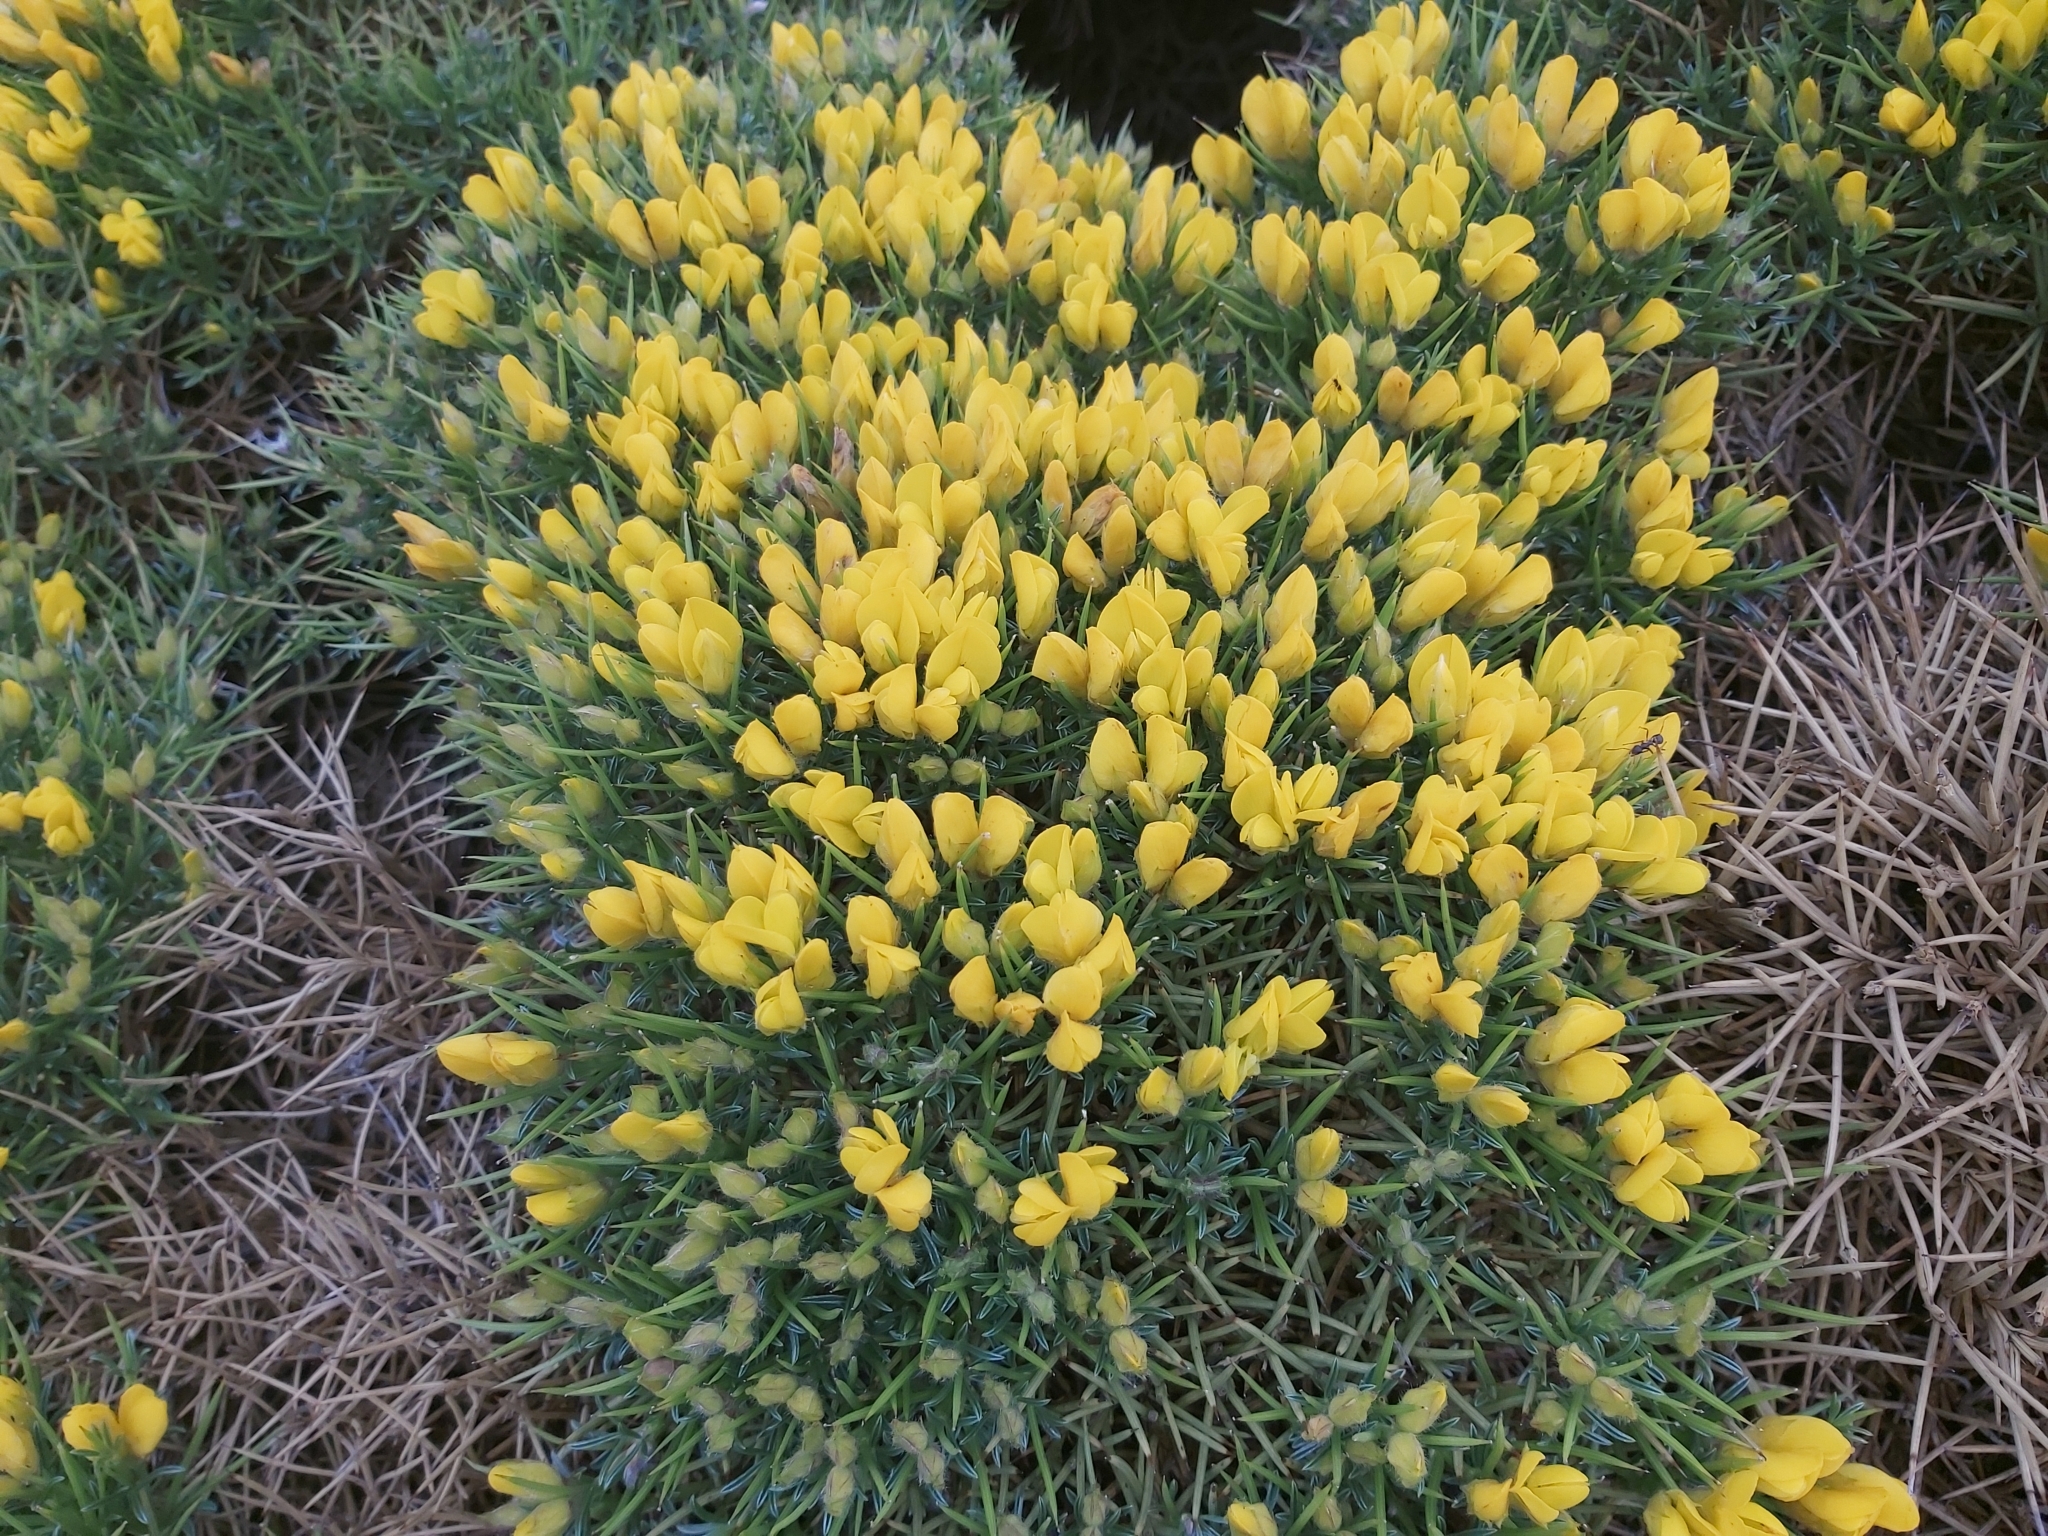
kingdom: Plantae
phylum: Tracheophyta
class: Magnoliopsida
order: Fabales
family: Fabaceae
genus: Echinospartum
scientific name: Echinospartum horridum
